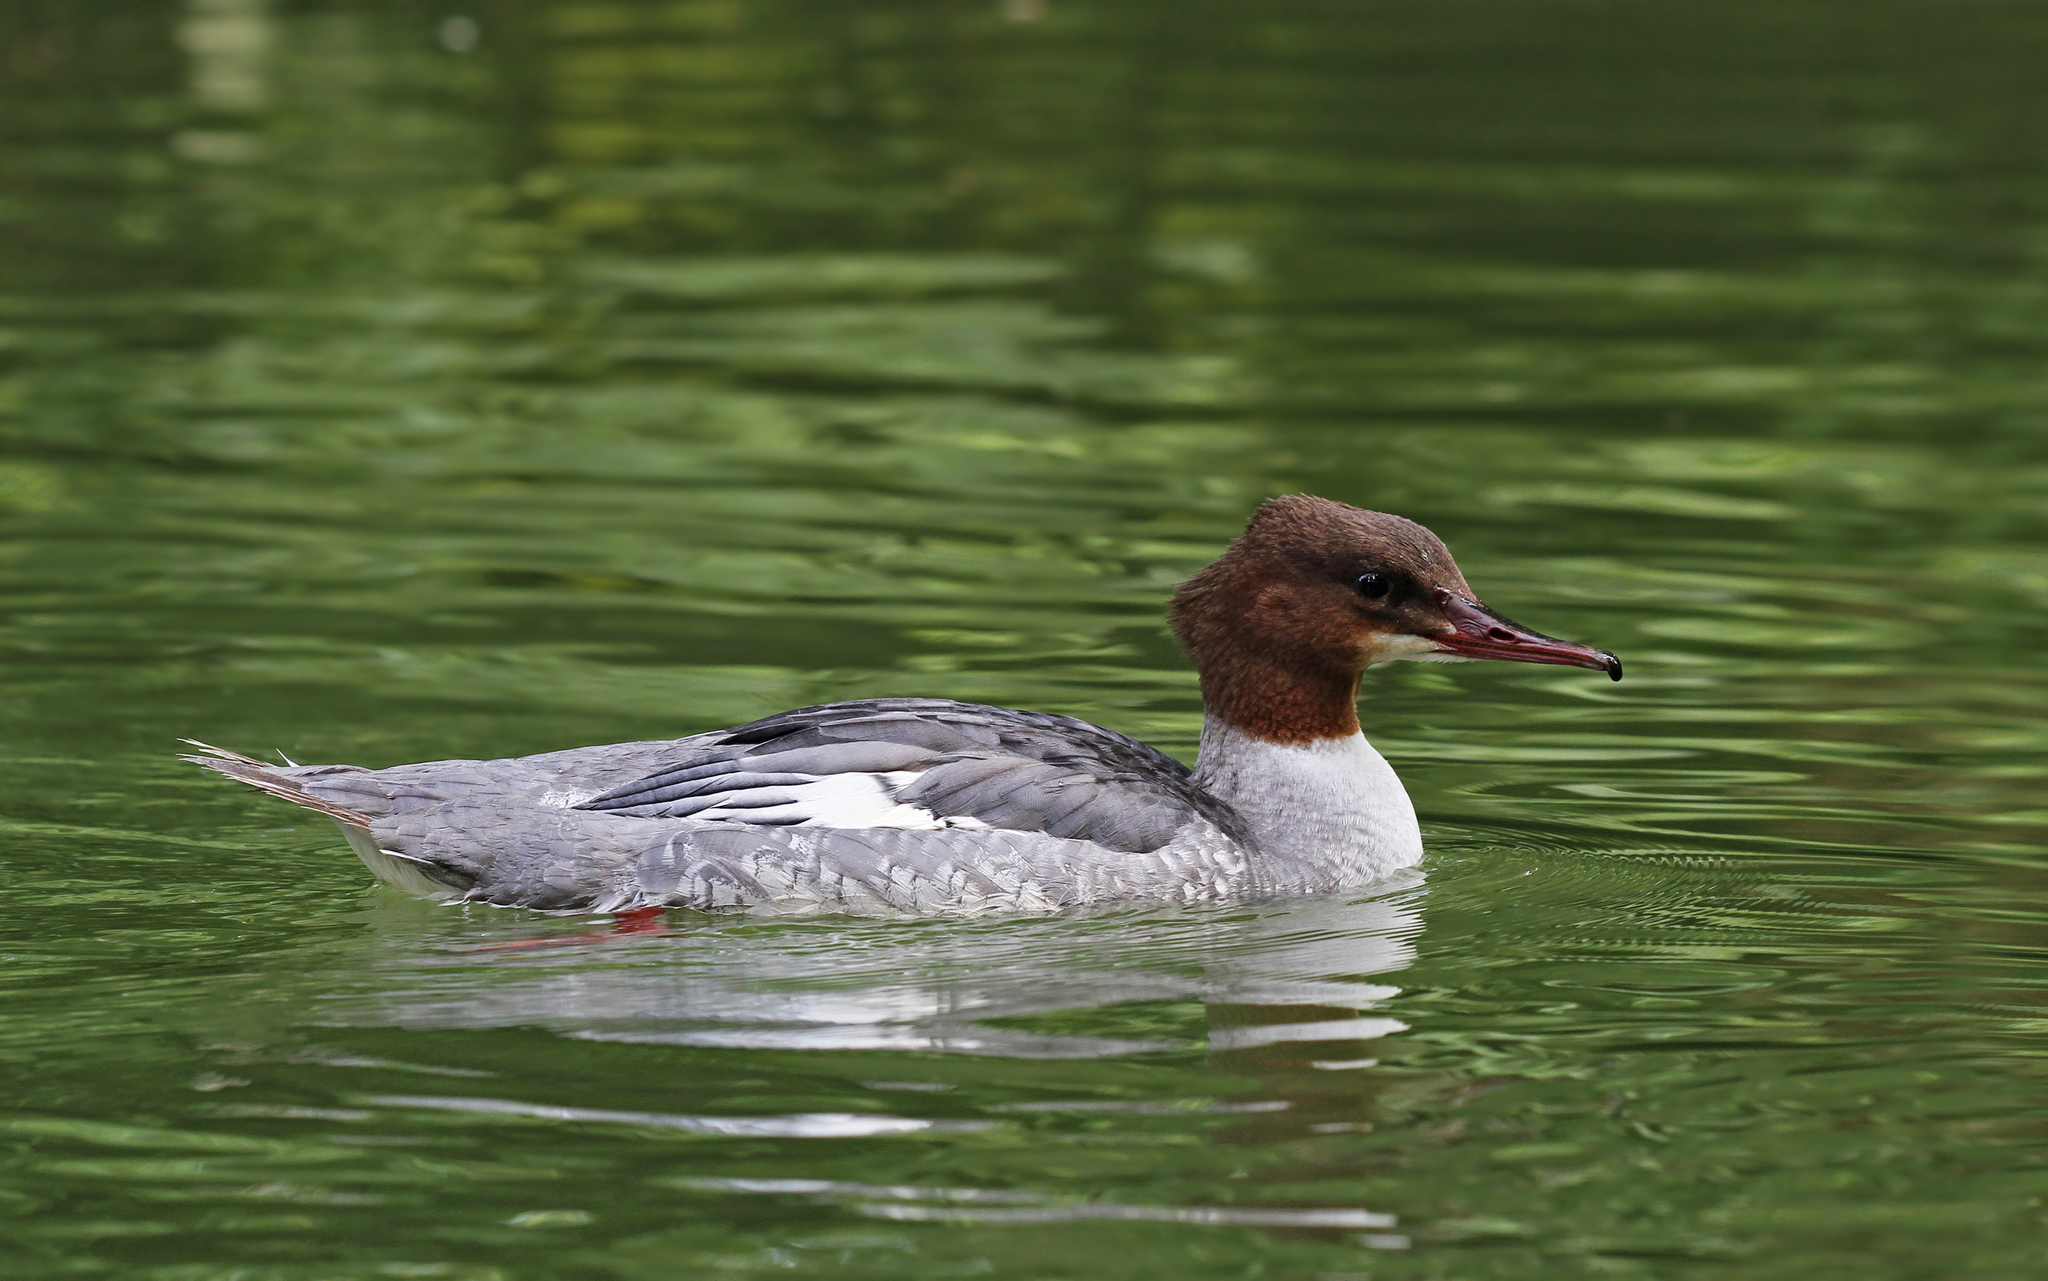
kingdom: Animalia
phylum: Chordata
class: Aves
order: Anseriformes
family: Anatidae
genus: Mergus
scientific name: Mergus merganser
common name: Common merganser
